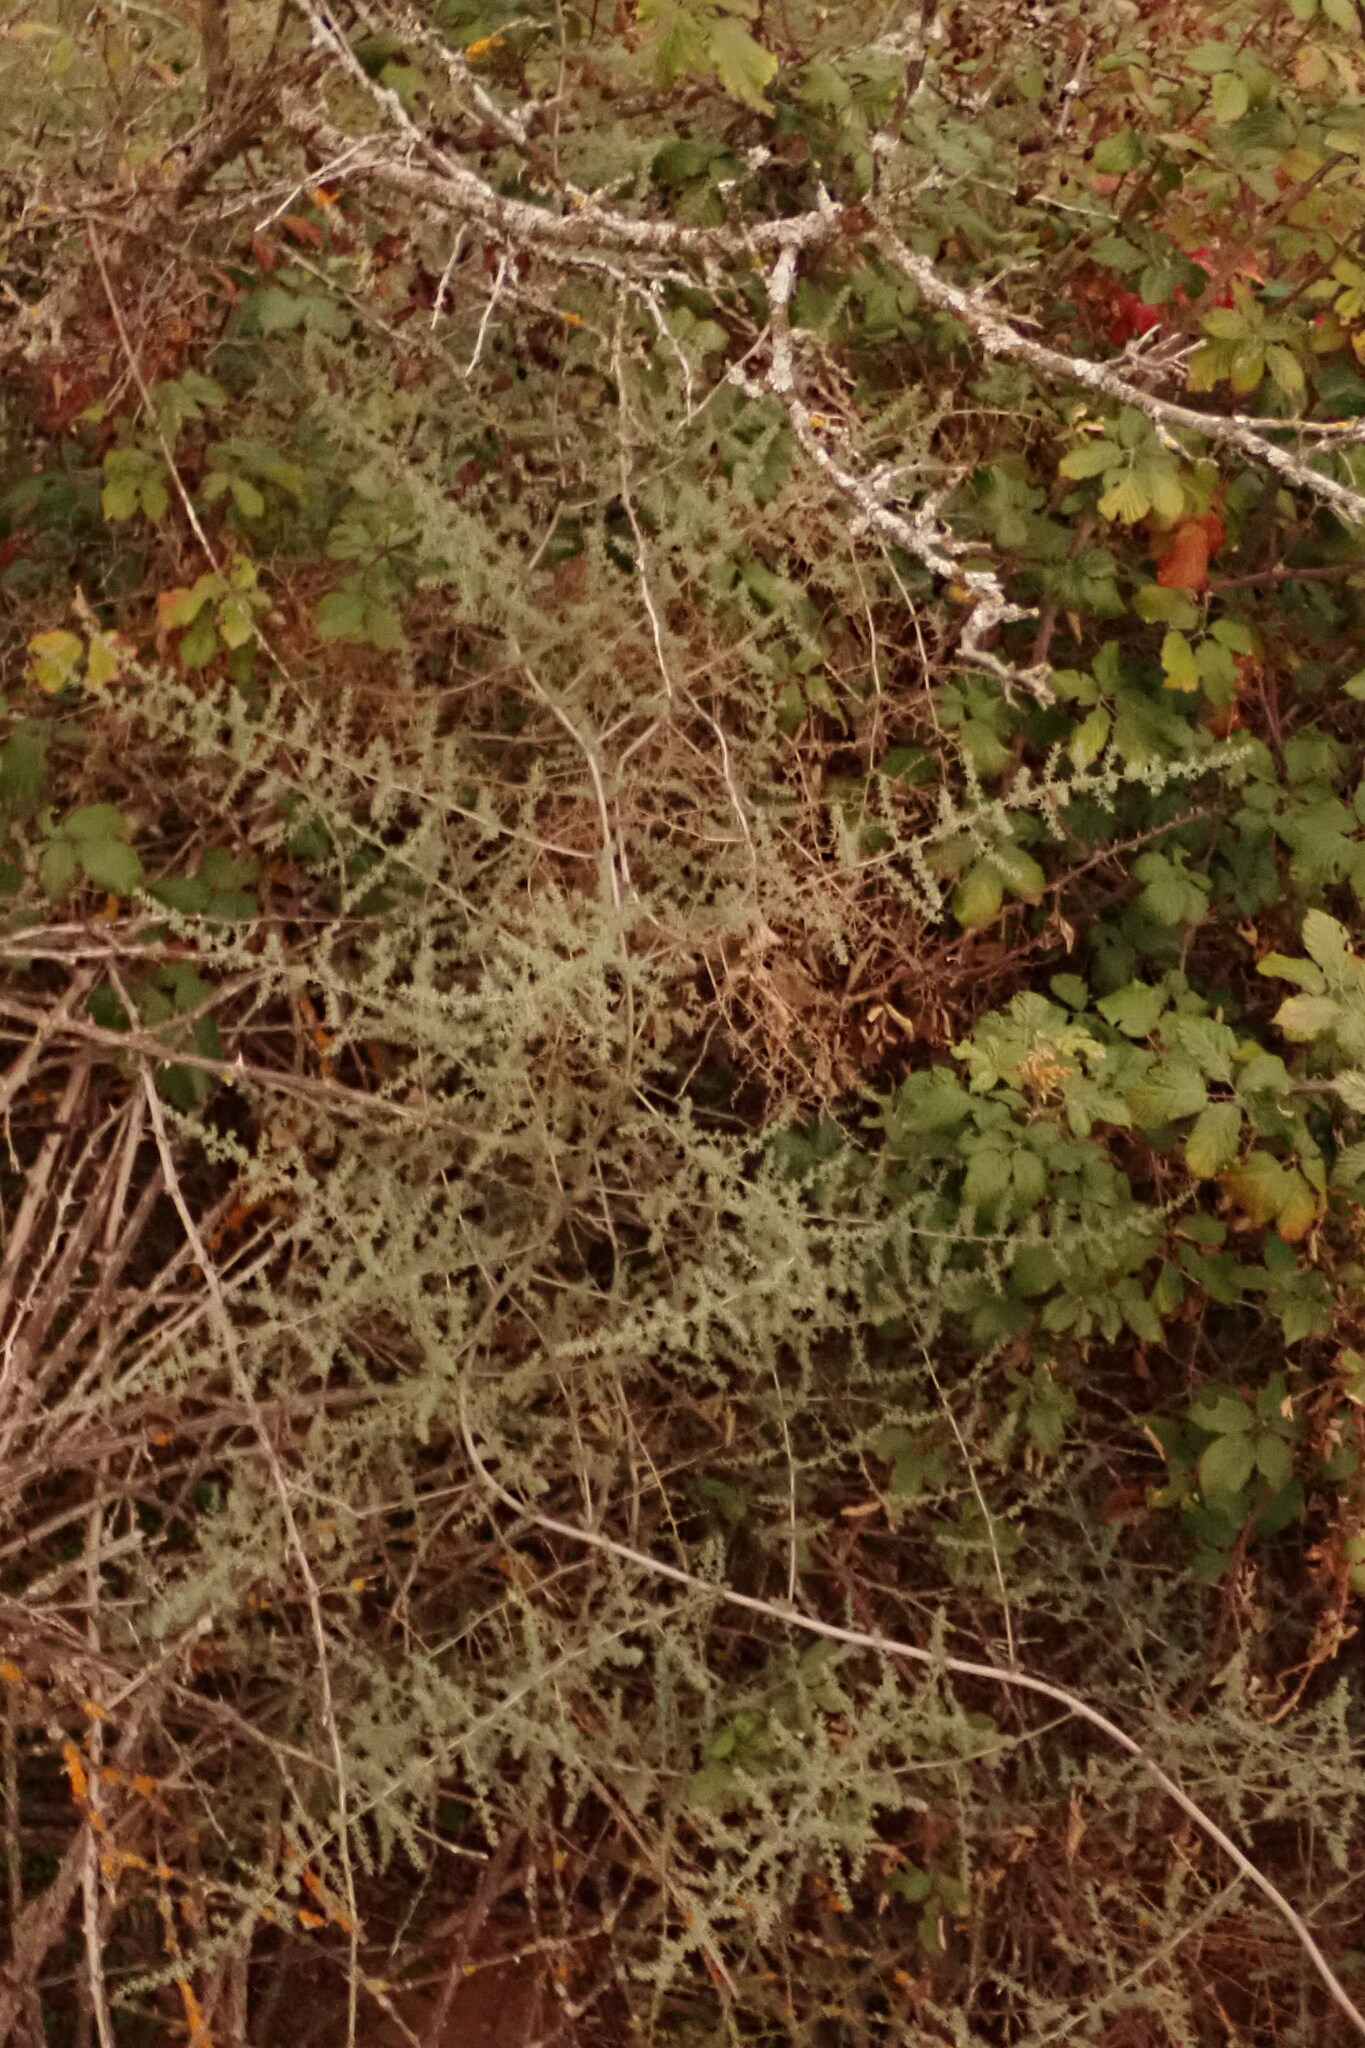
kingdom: Plantae
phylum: Tracheophyta
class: Liliopsida
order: Asparagales
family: Asparagaceae
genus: Asparagus
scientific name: Asparagus acutifolius
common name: Wild asparagus
